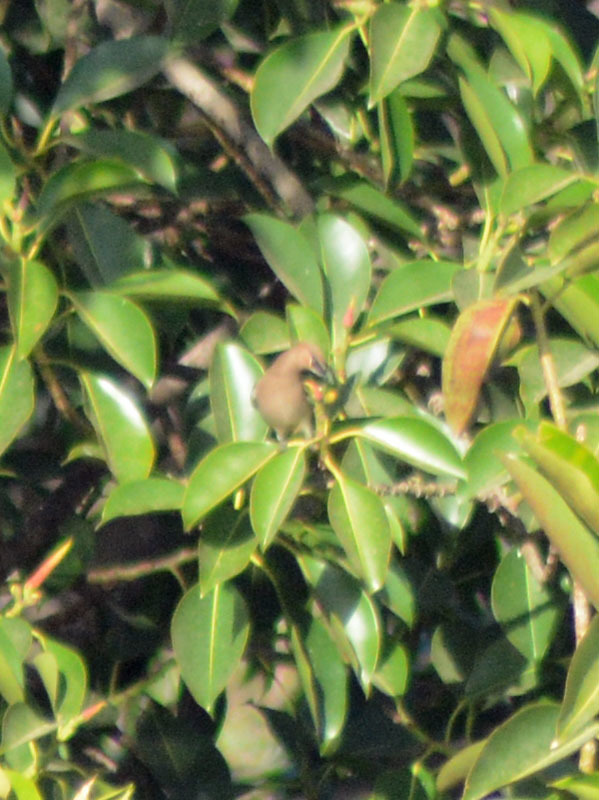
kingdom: Animalia
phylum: Chordata
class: Aves
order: Passeriformes
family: Bombycillidae
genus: Bombycilla
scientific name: Bombycilla cedrorum
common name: Cedar waxwing
